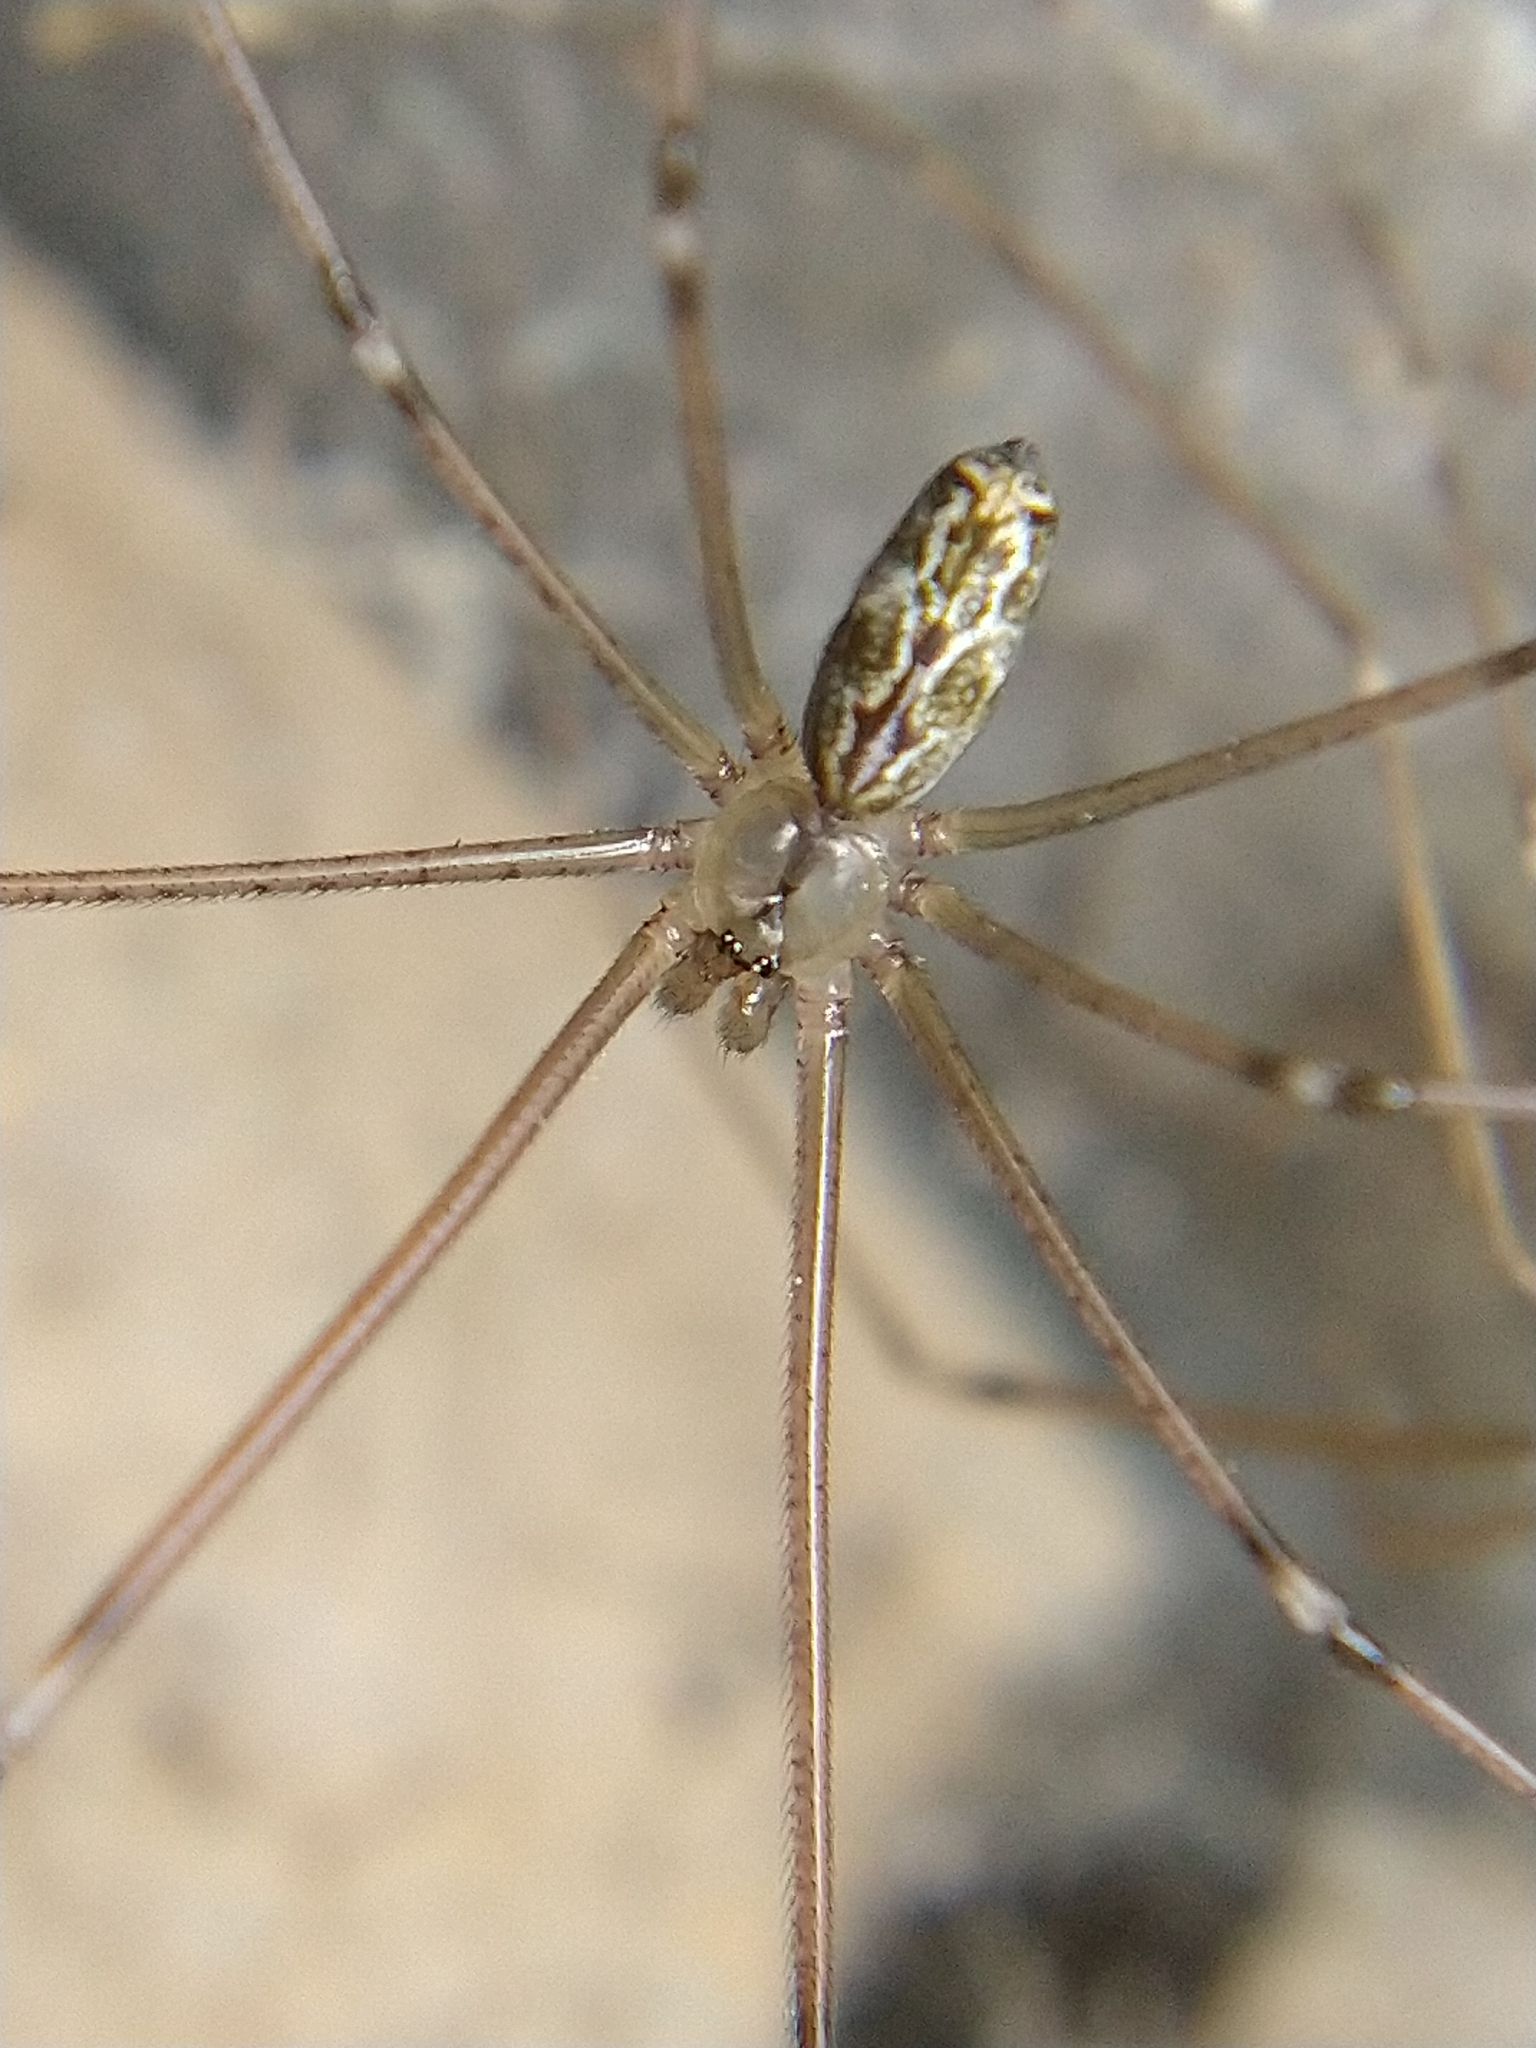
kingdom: Animalia
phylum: Arthropoda
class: Arachnida
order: Araneae
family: Pholcidae
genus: Holocnemus
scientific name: Holocnemus pluchei
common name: Marbled cellar spider
